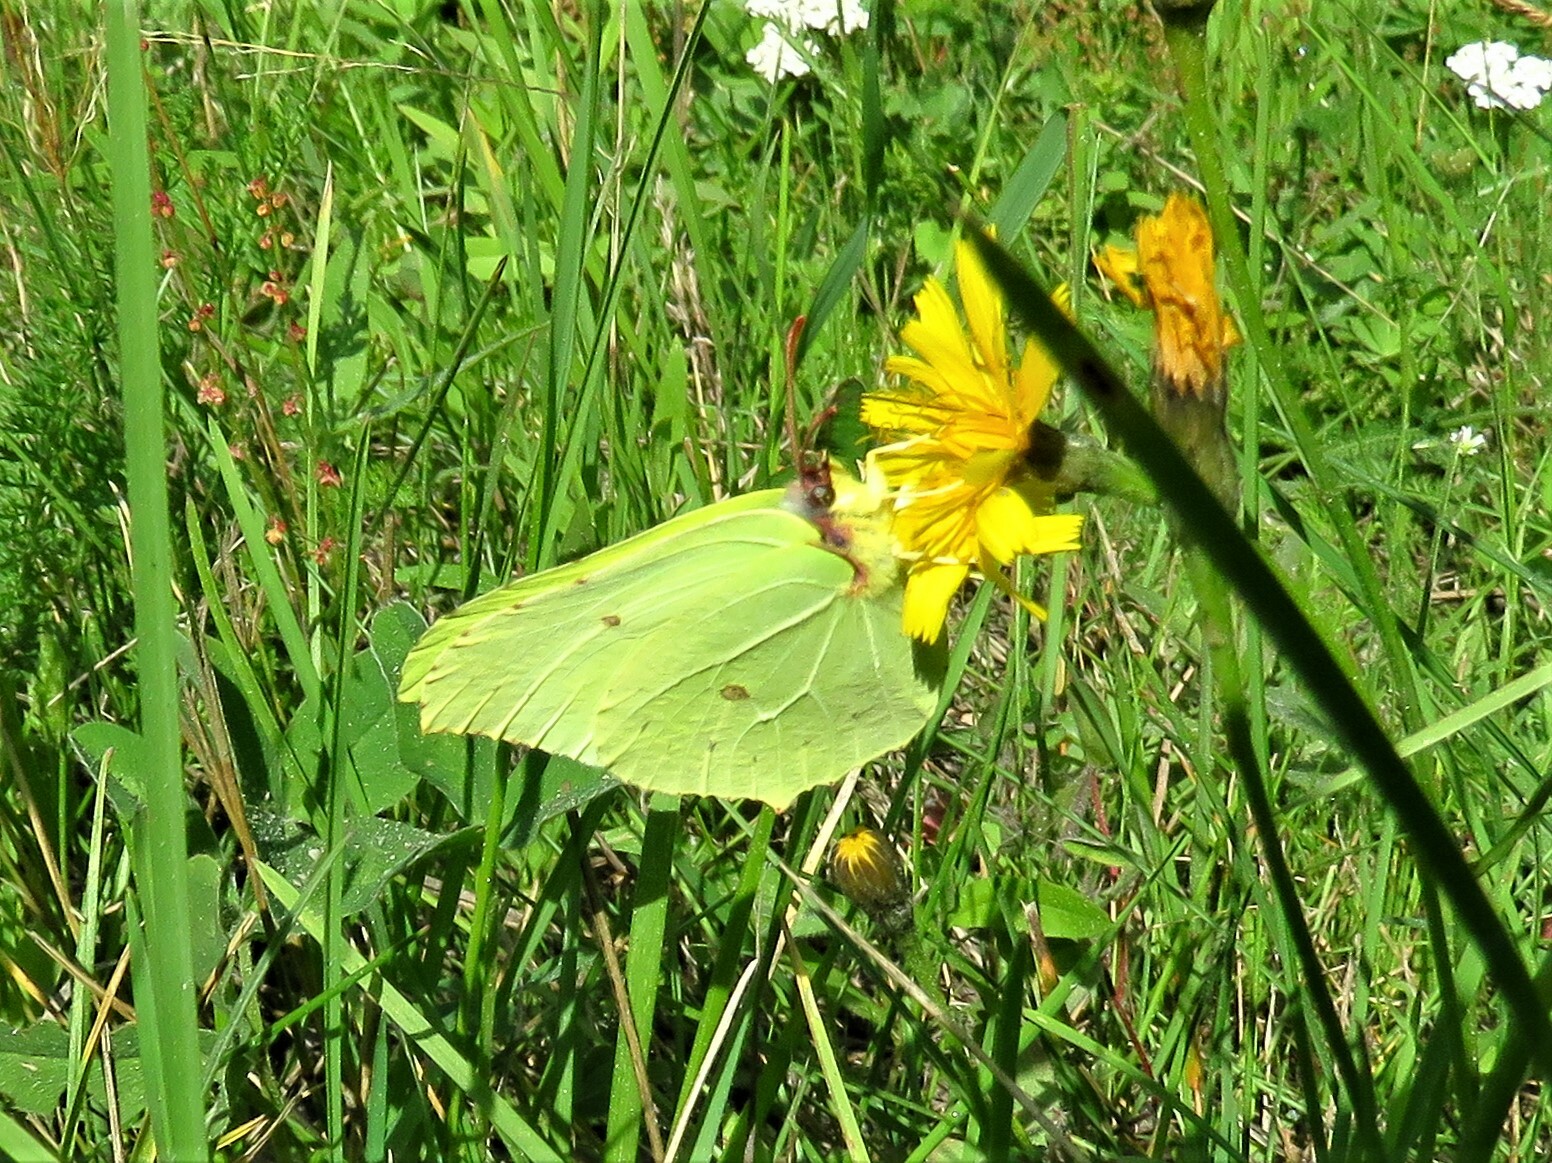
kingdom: Animalia
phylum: Arthropoda
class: Insecta
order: Lepidoptera
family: Pieridae
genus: Gonepteryx
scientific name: Gonepteryx rhamni
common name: Brimstone
